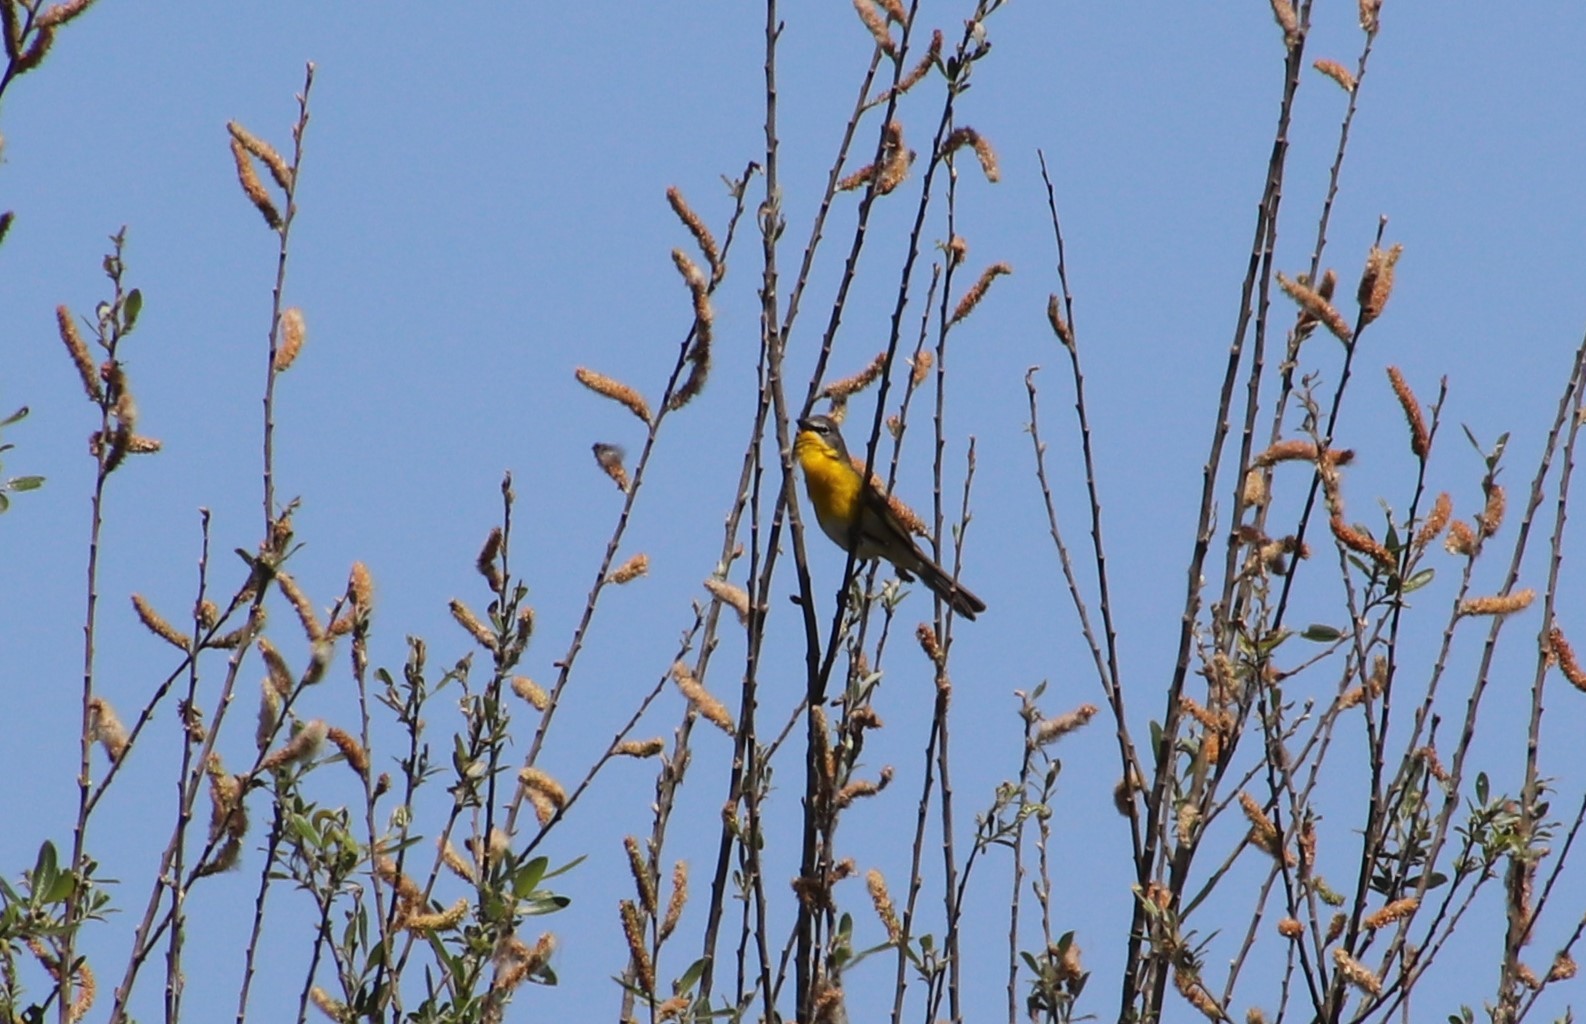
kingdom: Animalia
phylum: Chordata
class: Aves
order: Passeriformes
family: Parulidae
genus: Icteria
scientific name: Icteria virens
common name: Yellow-breasted chat
